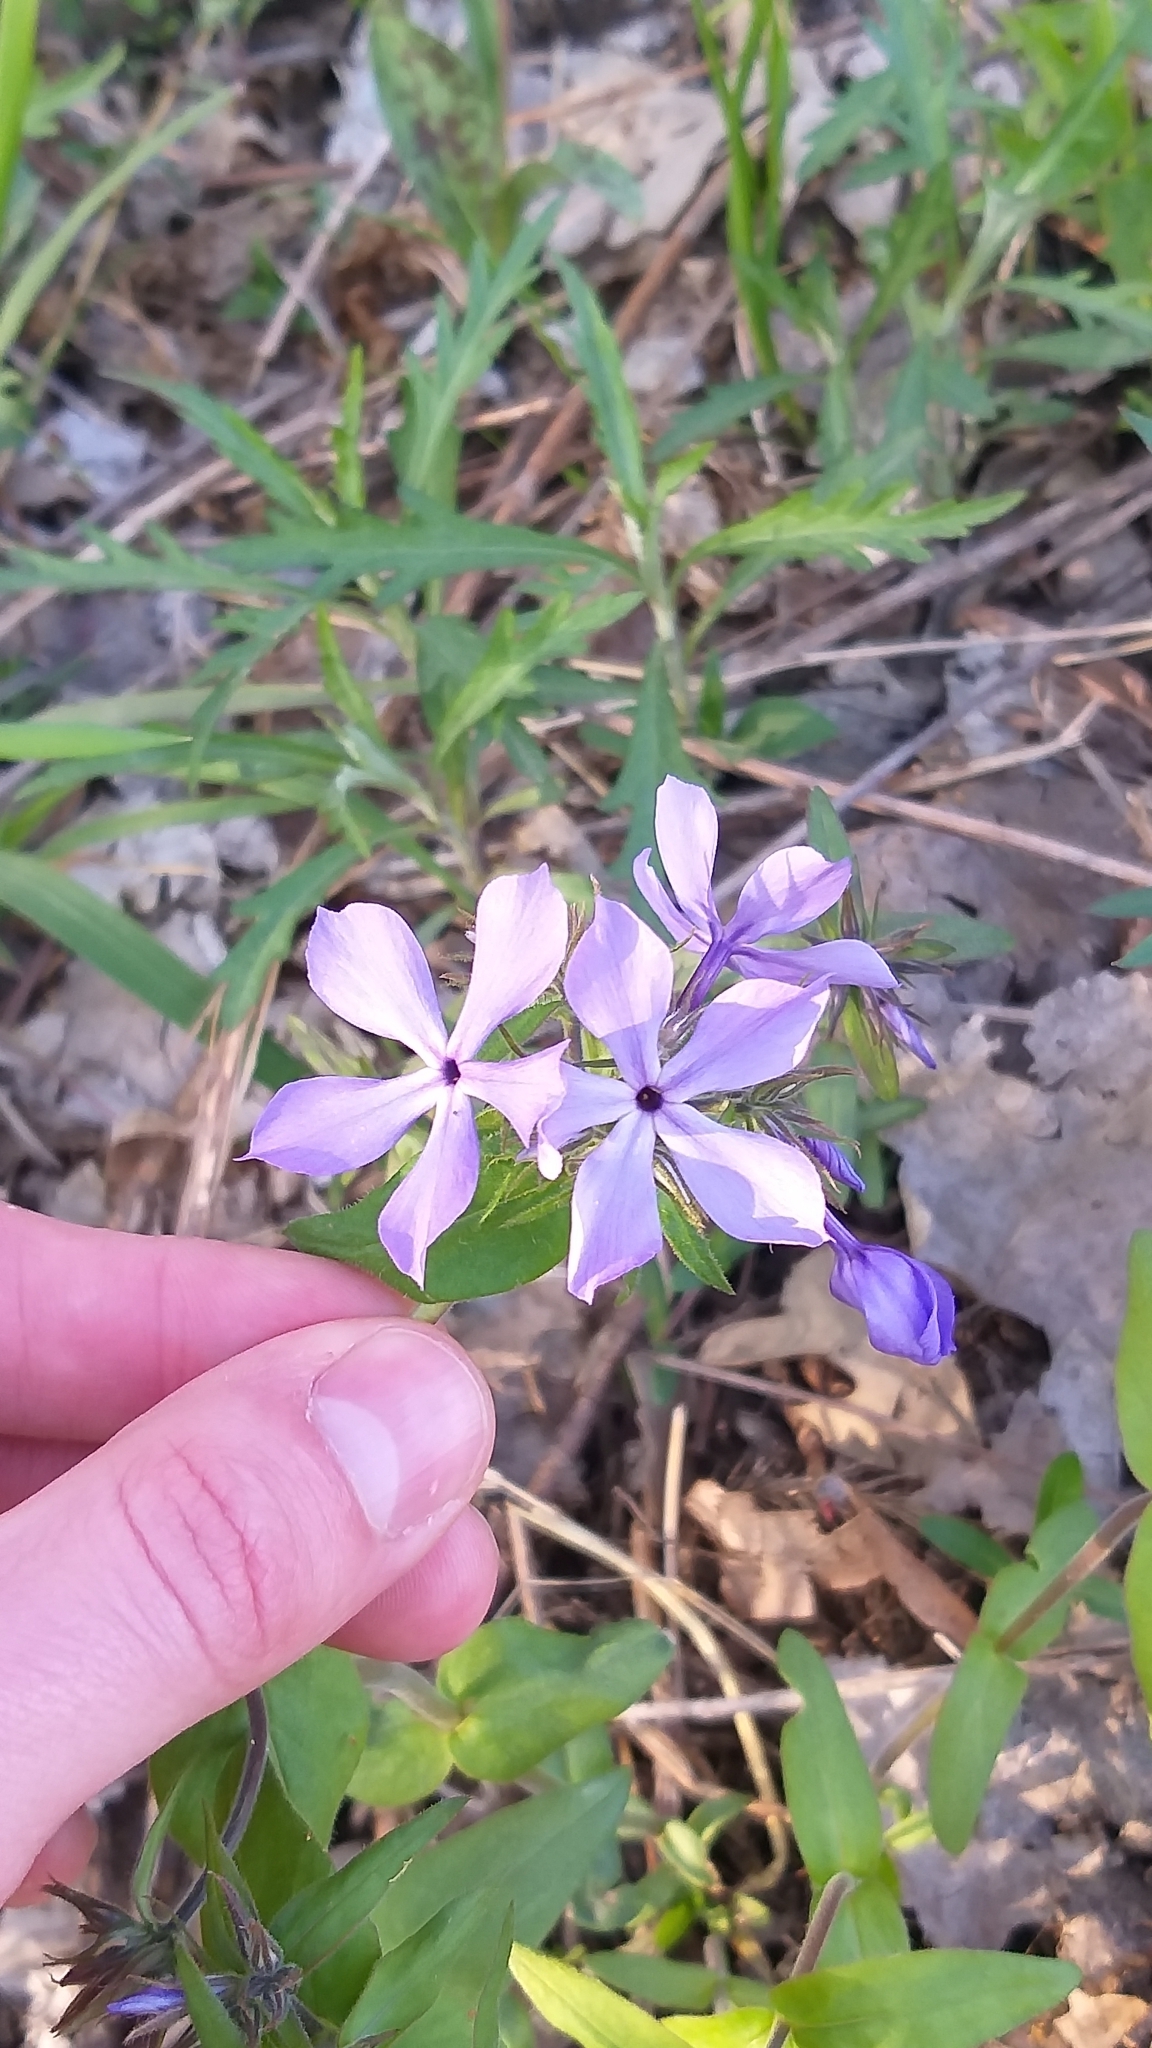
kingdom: Plantae
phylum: Tracheophyta
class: Magnoliopsida
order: Ericales
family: Polemoniaceae
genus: Phlox
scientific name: Phlox divaricata
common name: Blue phlox
